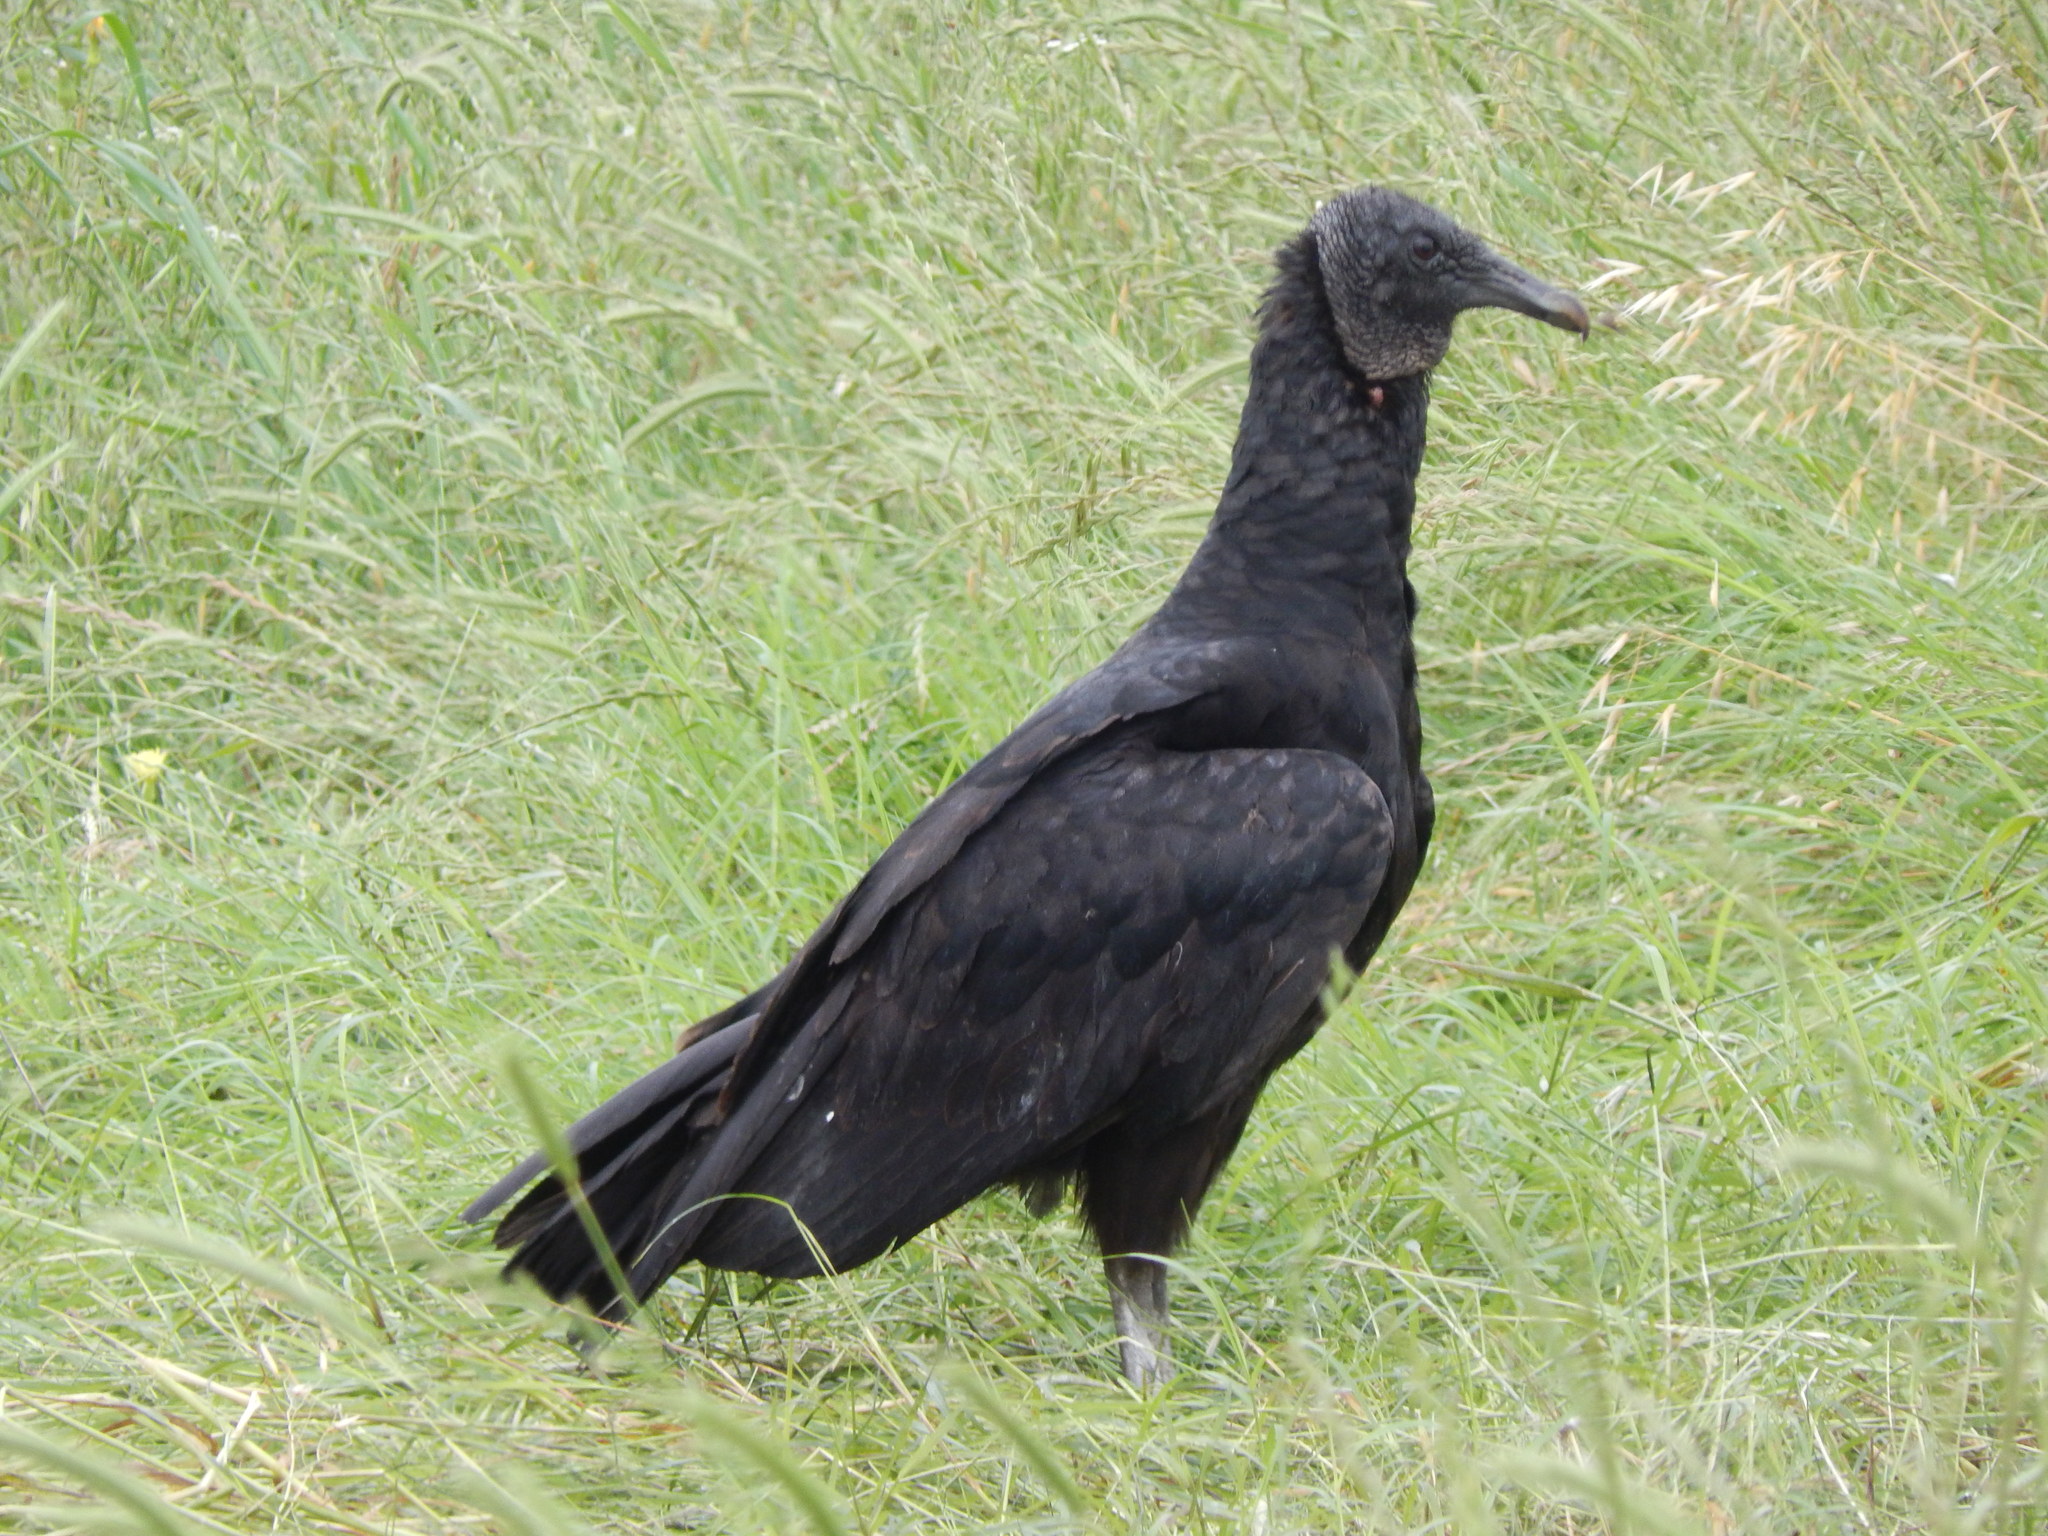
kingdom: Animalia
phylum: Chordata
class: Aves
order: Accipitriformes
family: Cathartidae
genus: Coragyps
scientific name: Coragyps atratus
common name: Black vulture
